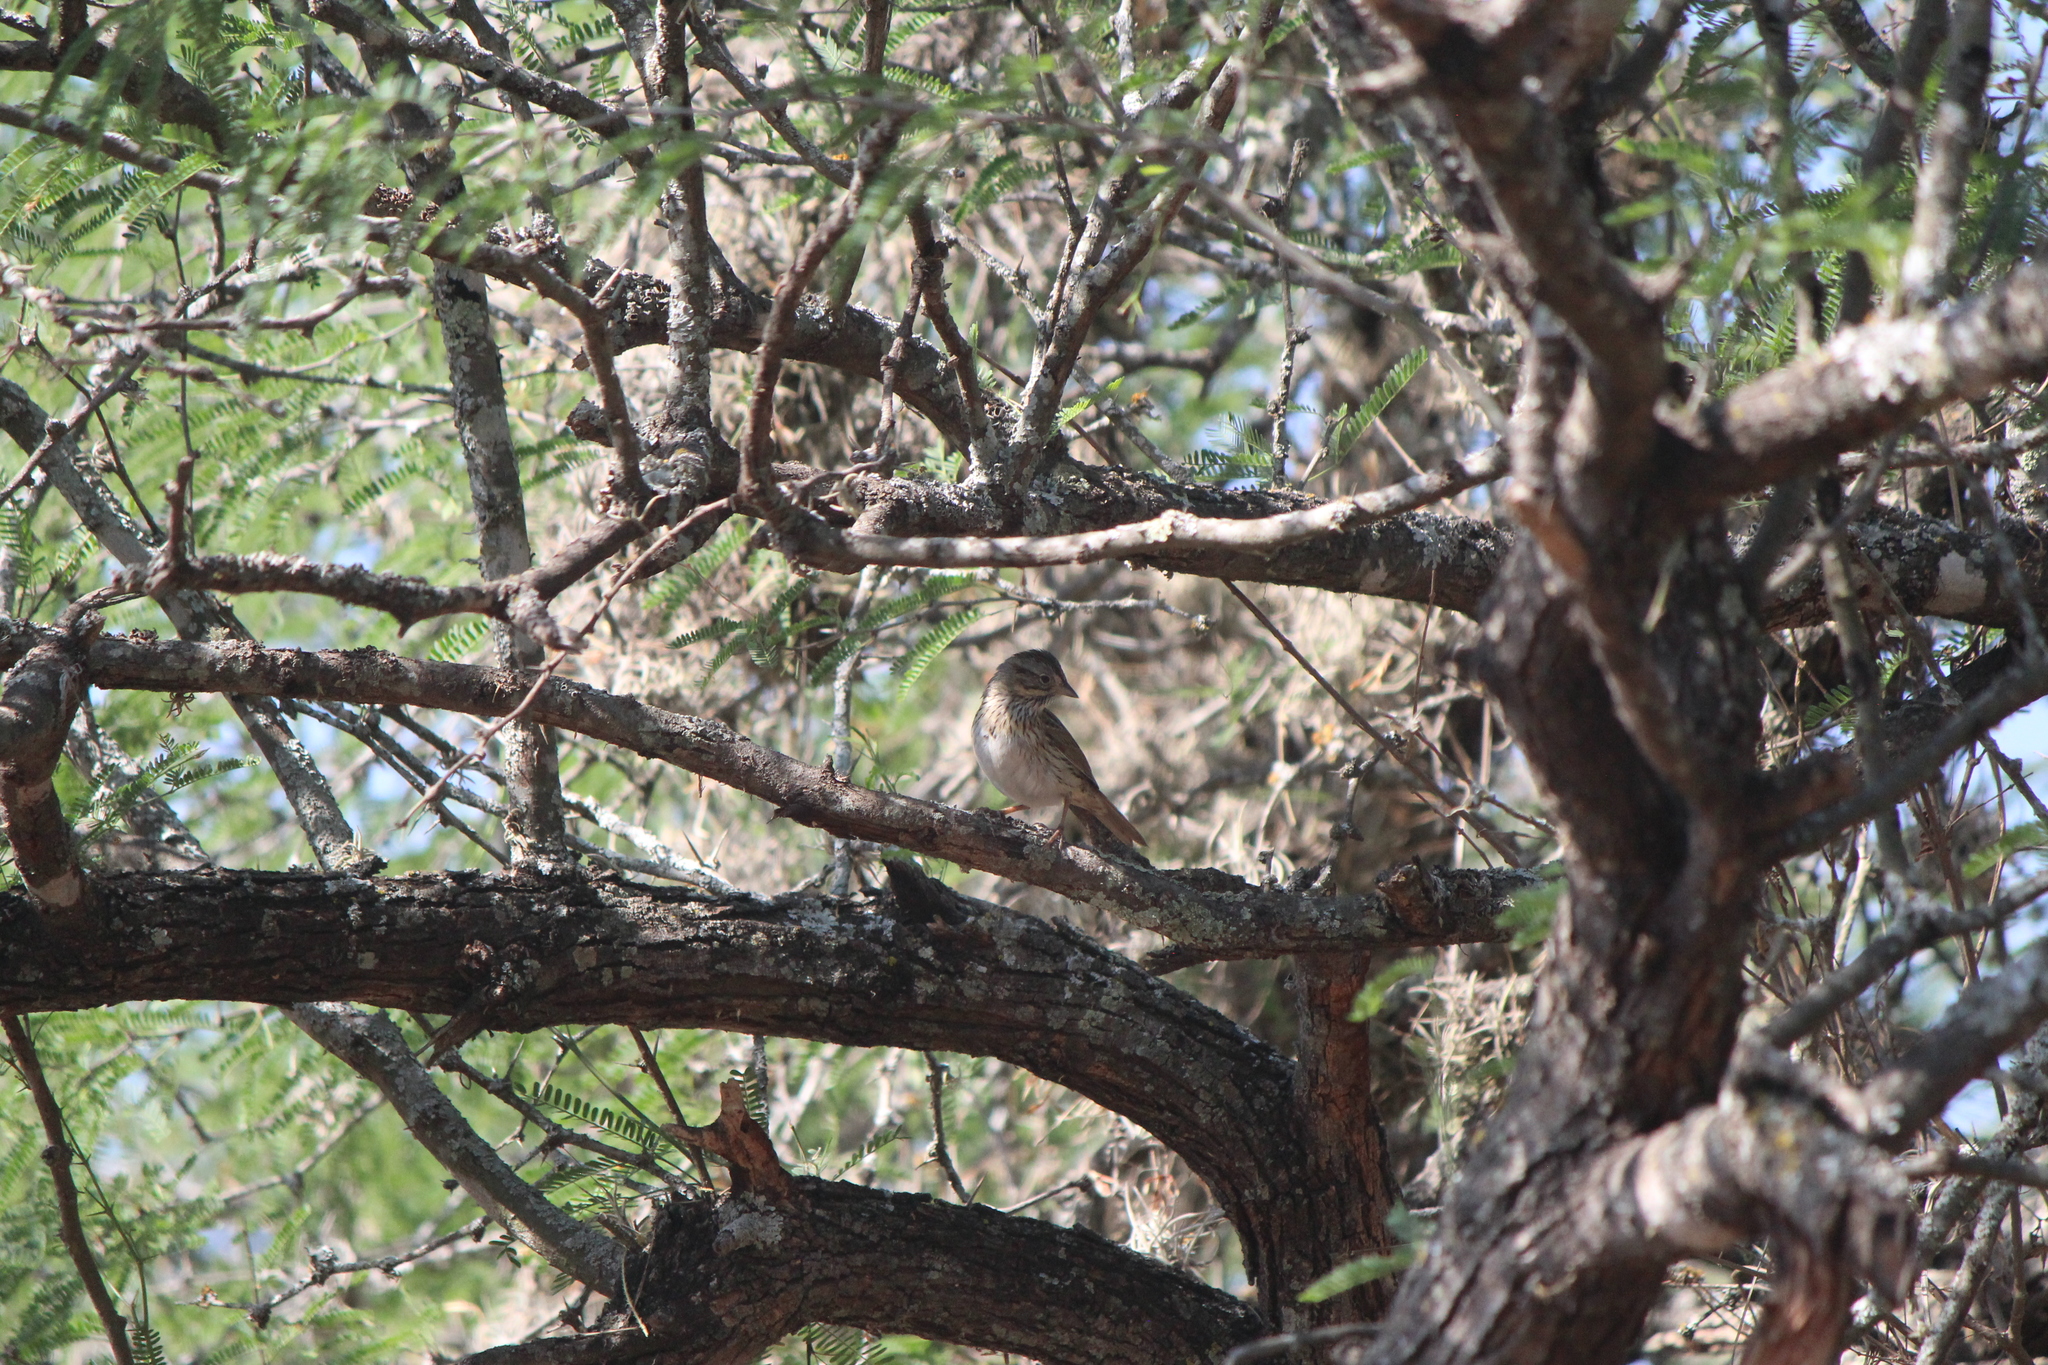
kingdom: Animalia
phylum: Chordata
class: Aves
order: Passeriformes
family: Passerellidae
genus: Melospiza
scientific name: Melospiza lincolnii
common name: Lincoln's sparrow
